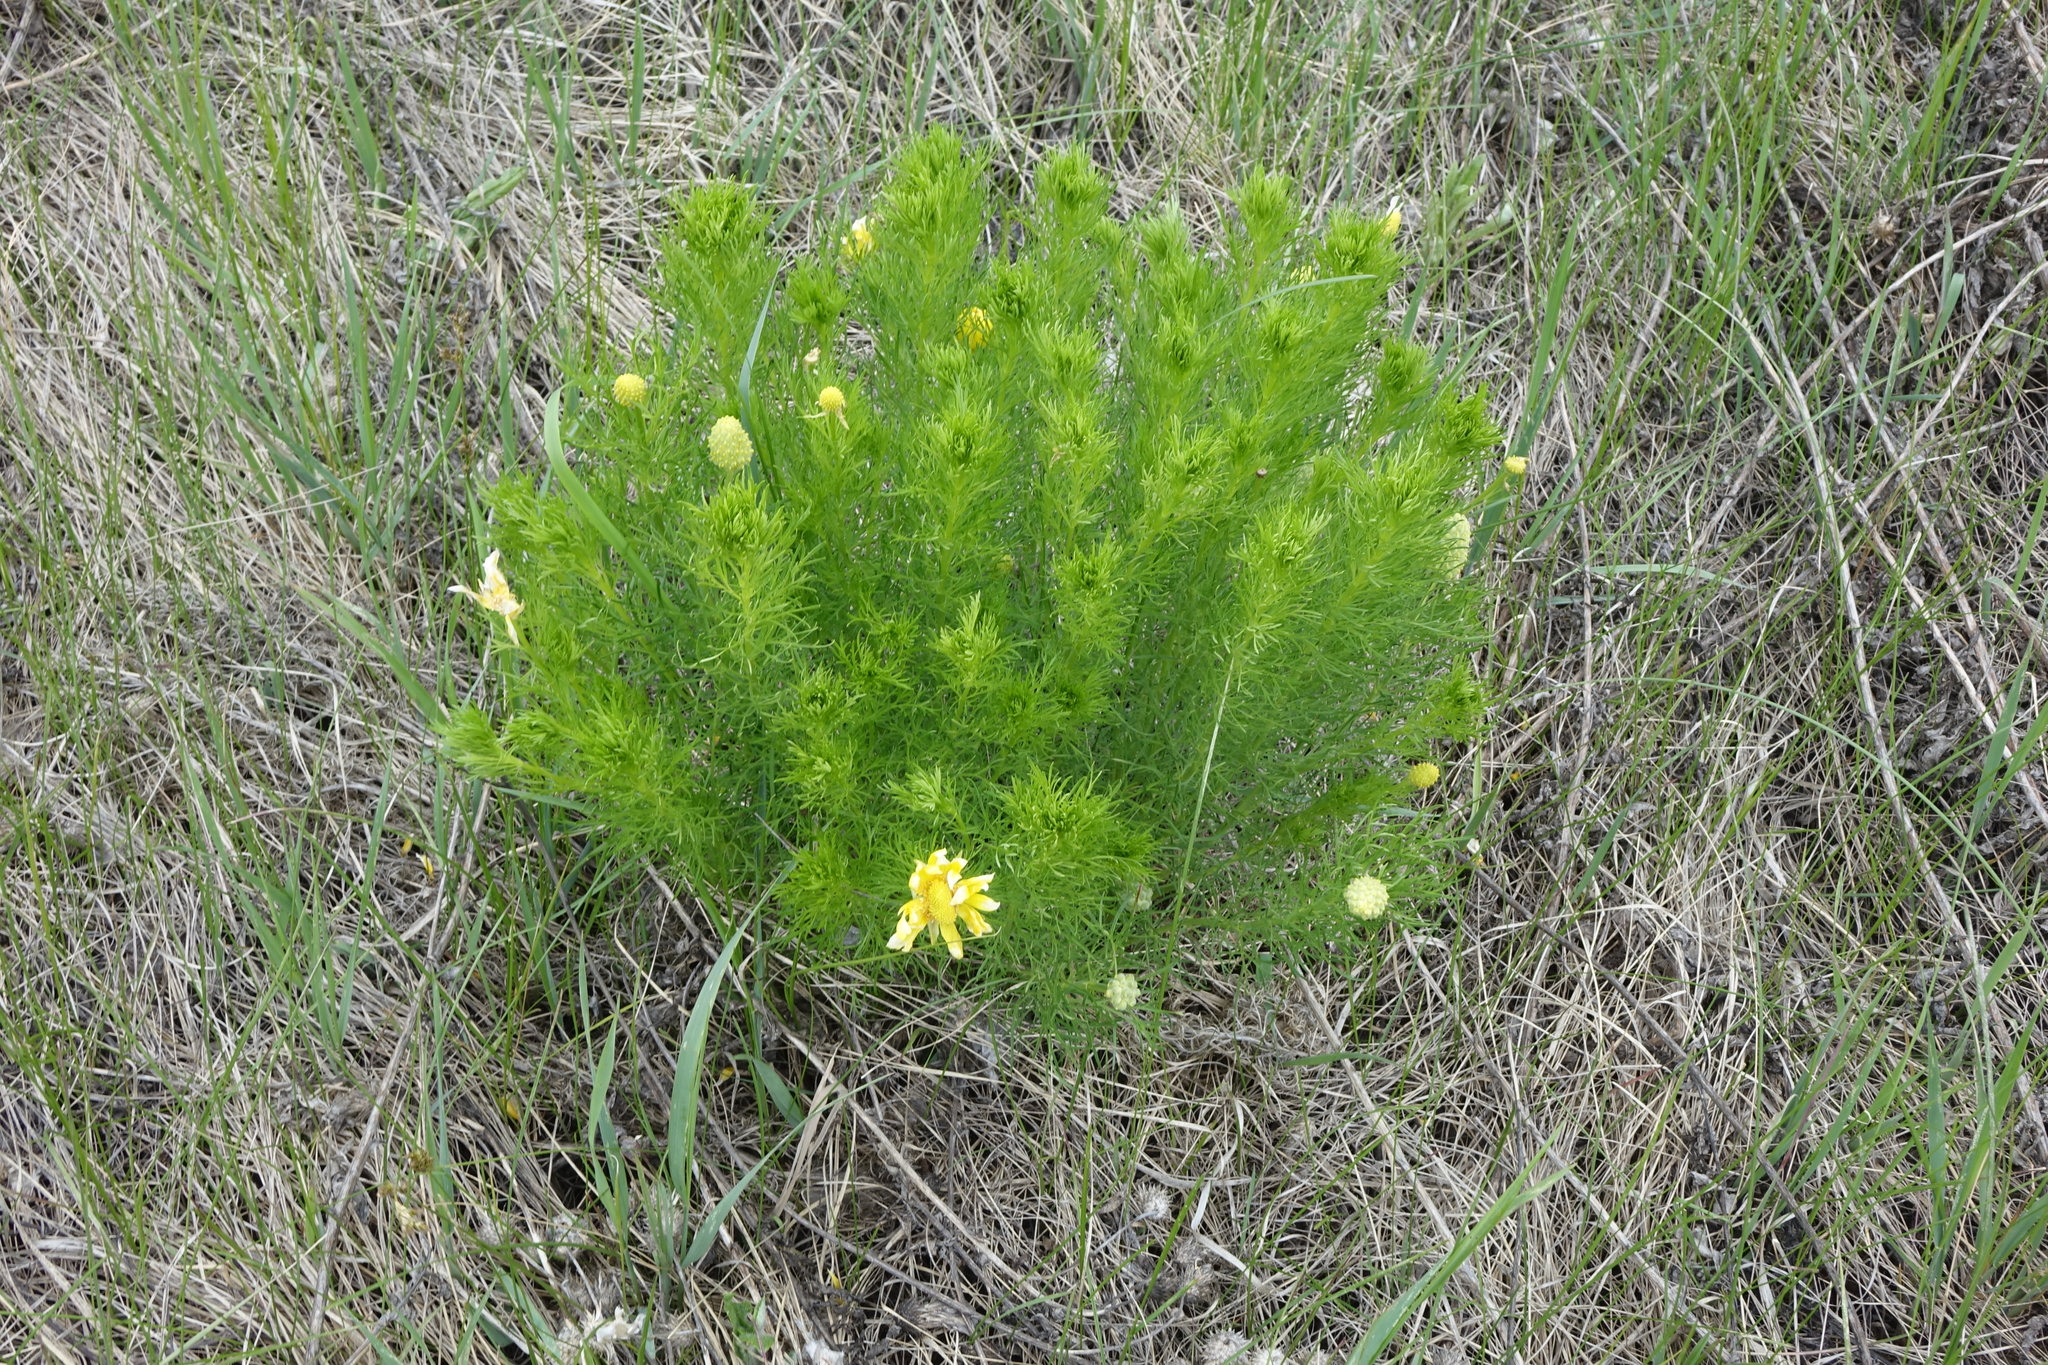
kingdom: Plantae
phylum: Tracheophyta
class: Magnoliopsida
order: Ranunculales
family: Ranunculaceae
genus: Adonis
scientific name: Adonis vernalis
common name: Yellow pheasants-eye
